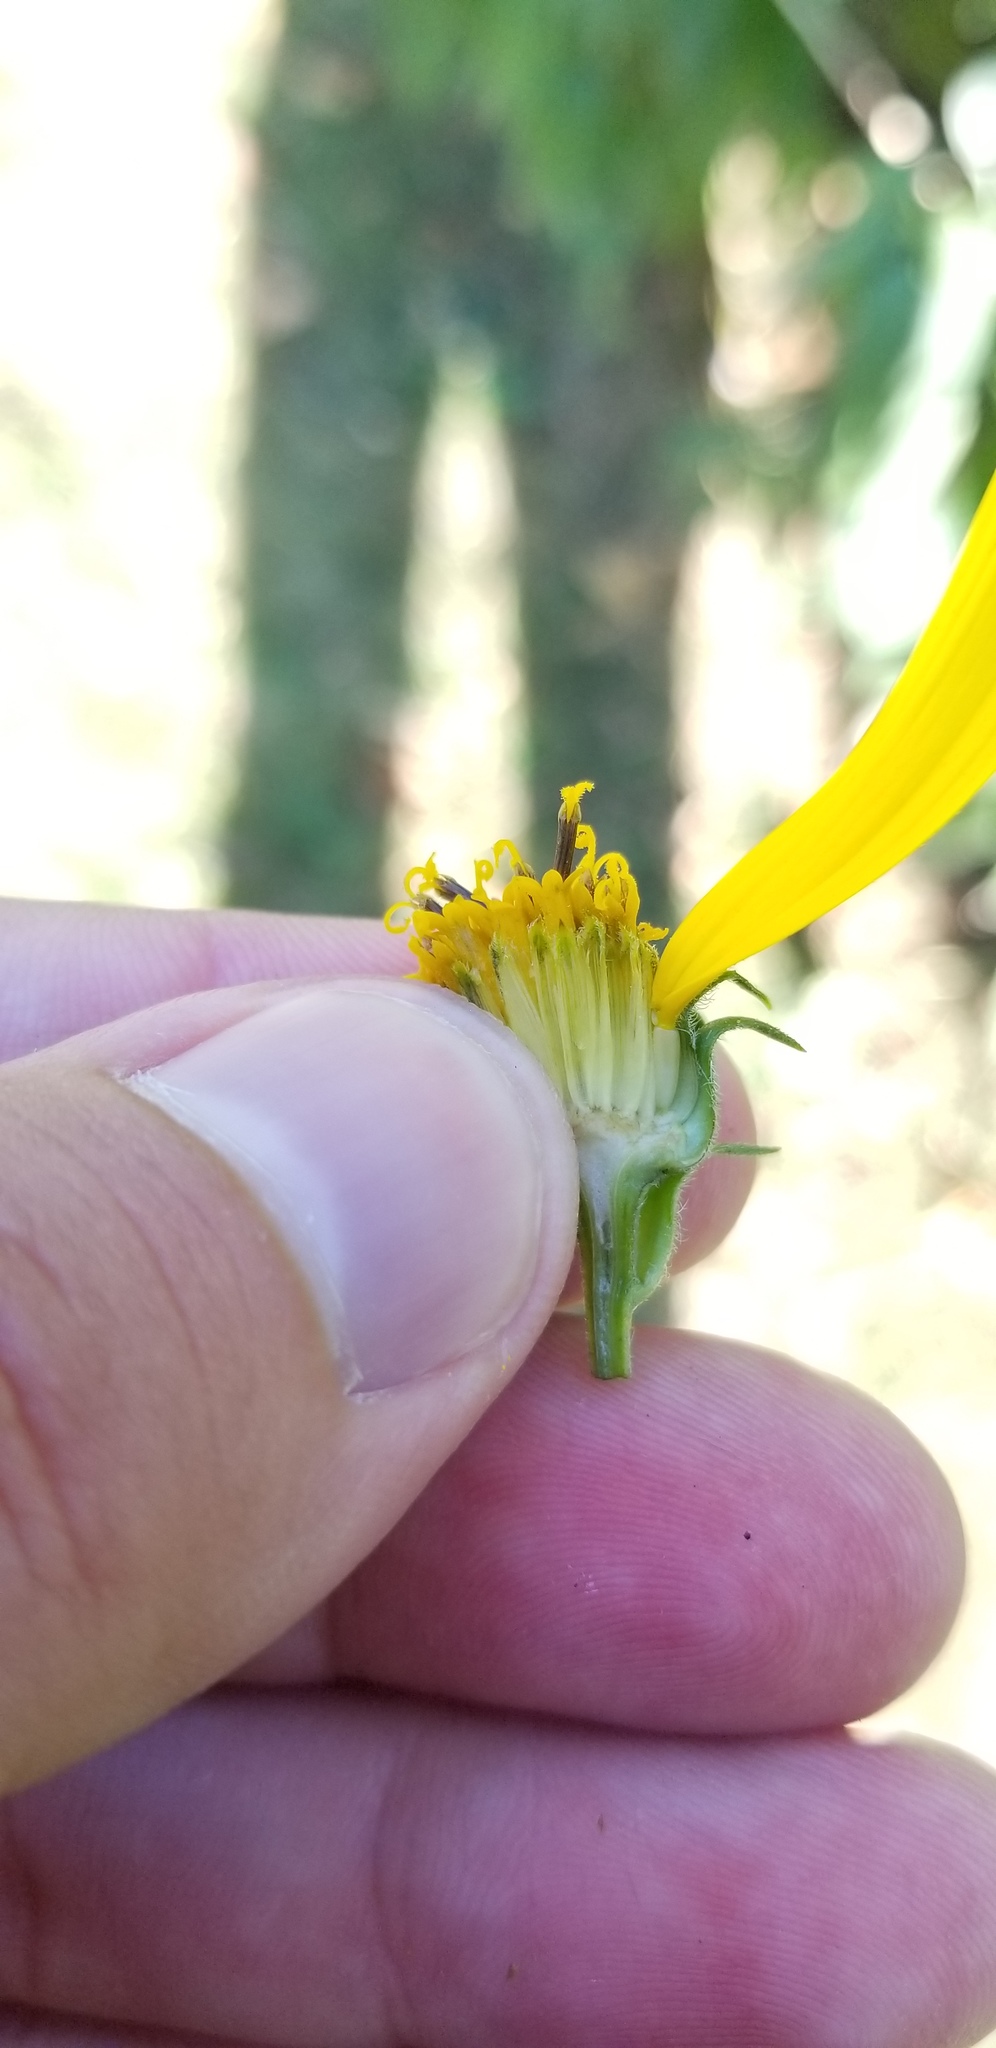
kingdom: Plantae
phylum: Tracheophyta
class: Magnoliopsida
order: Asterales
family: Asteraceae
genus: Helianthus
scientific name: Helianthus tuberosus
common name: Jerusalem artichoke
